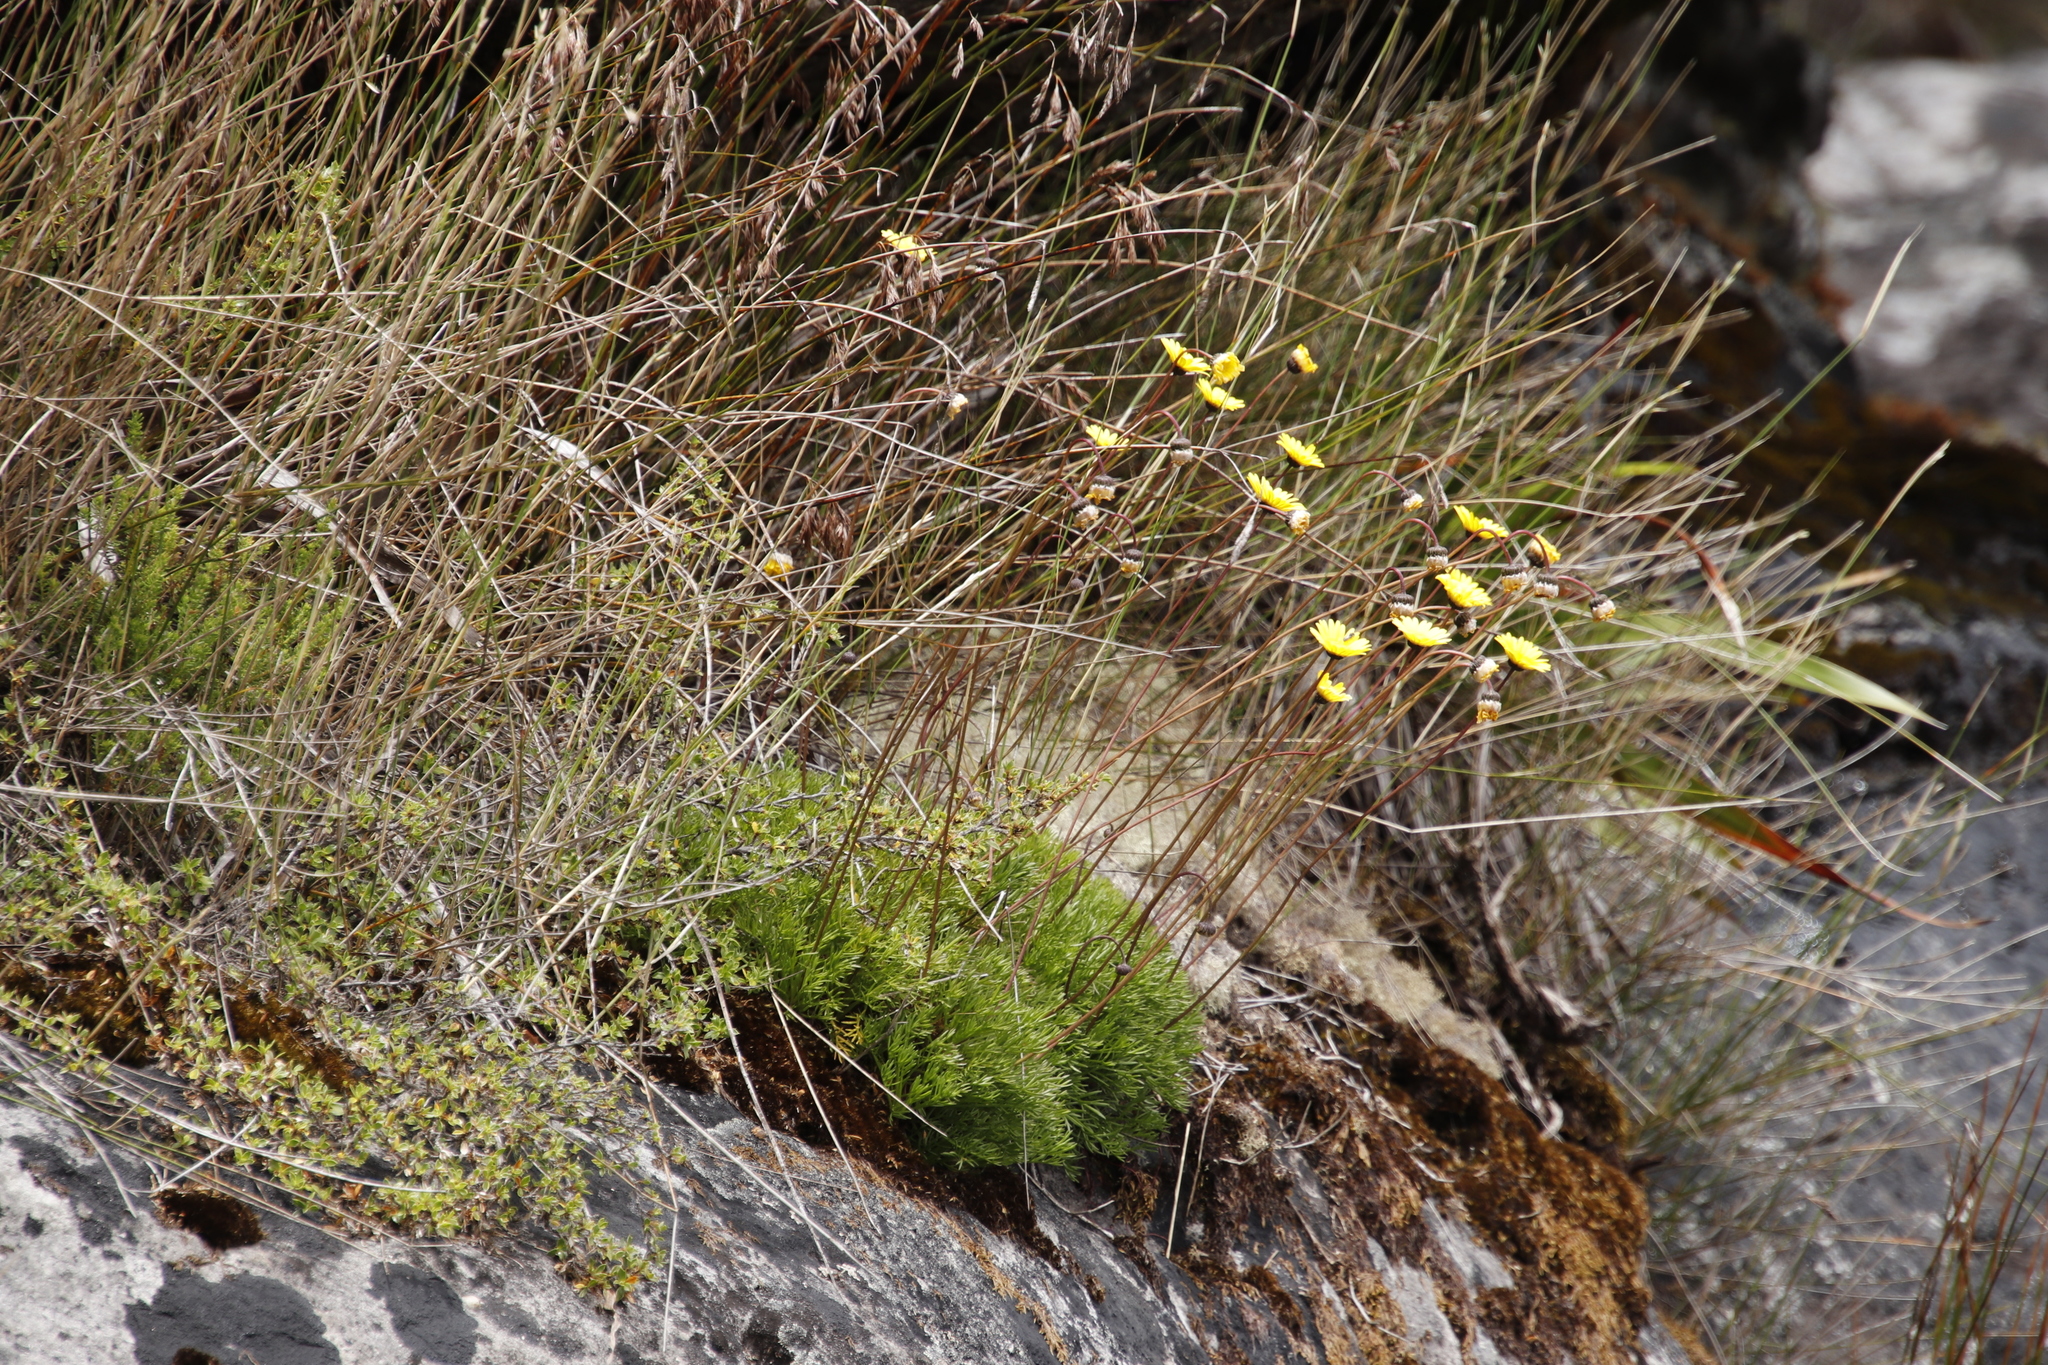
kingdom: Plantae
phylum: Tracheophyta
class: Magnoliopsida
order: Asterales
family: Asteraceae
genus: Ursinia
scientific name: Ursinia nudicaulis
